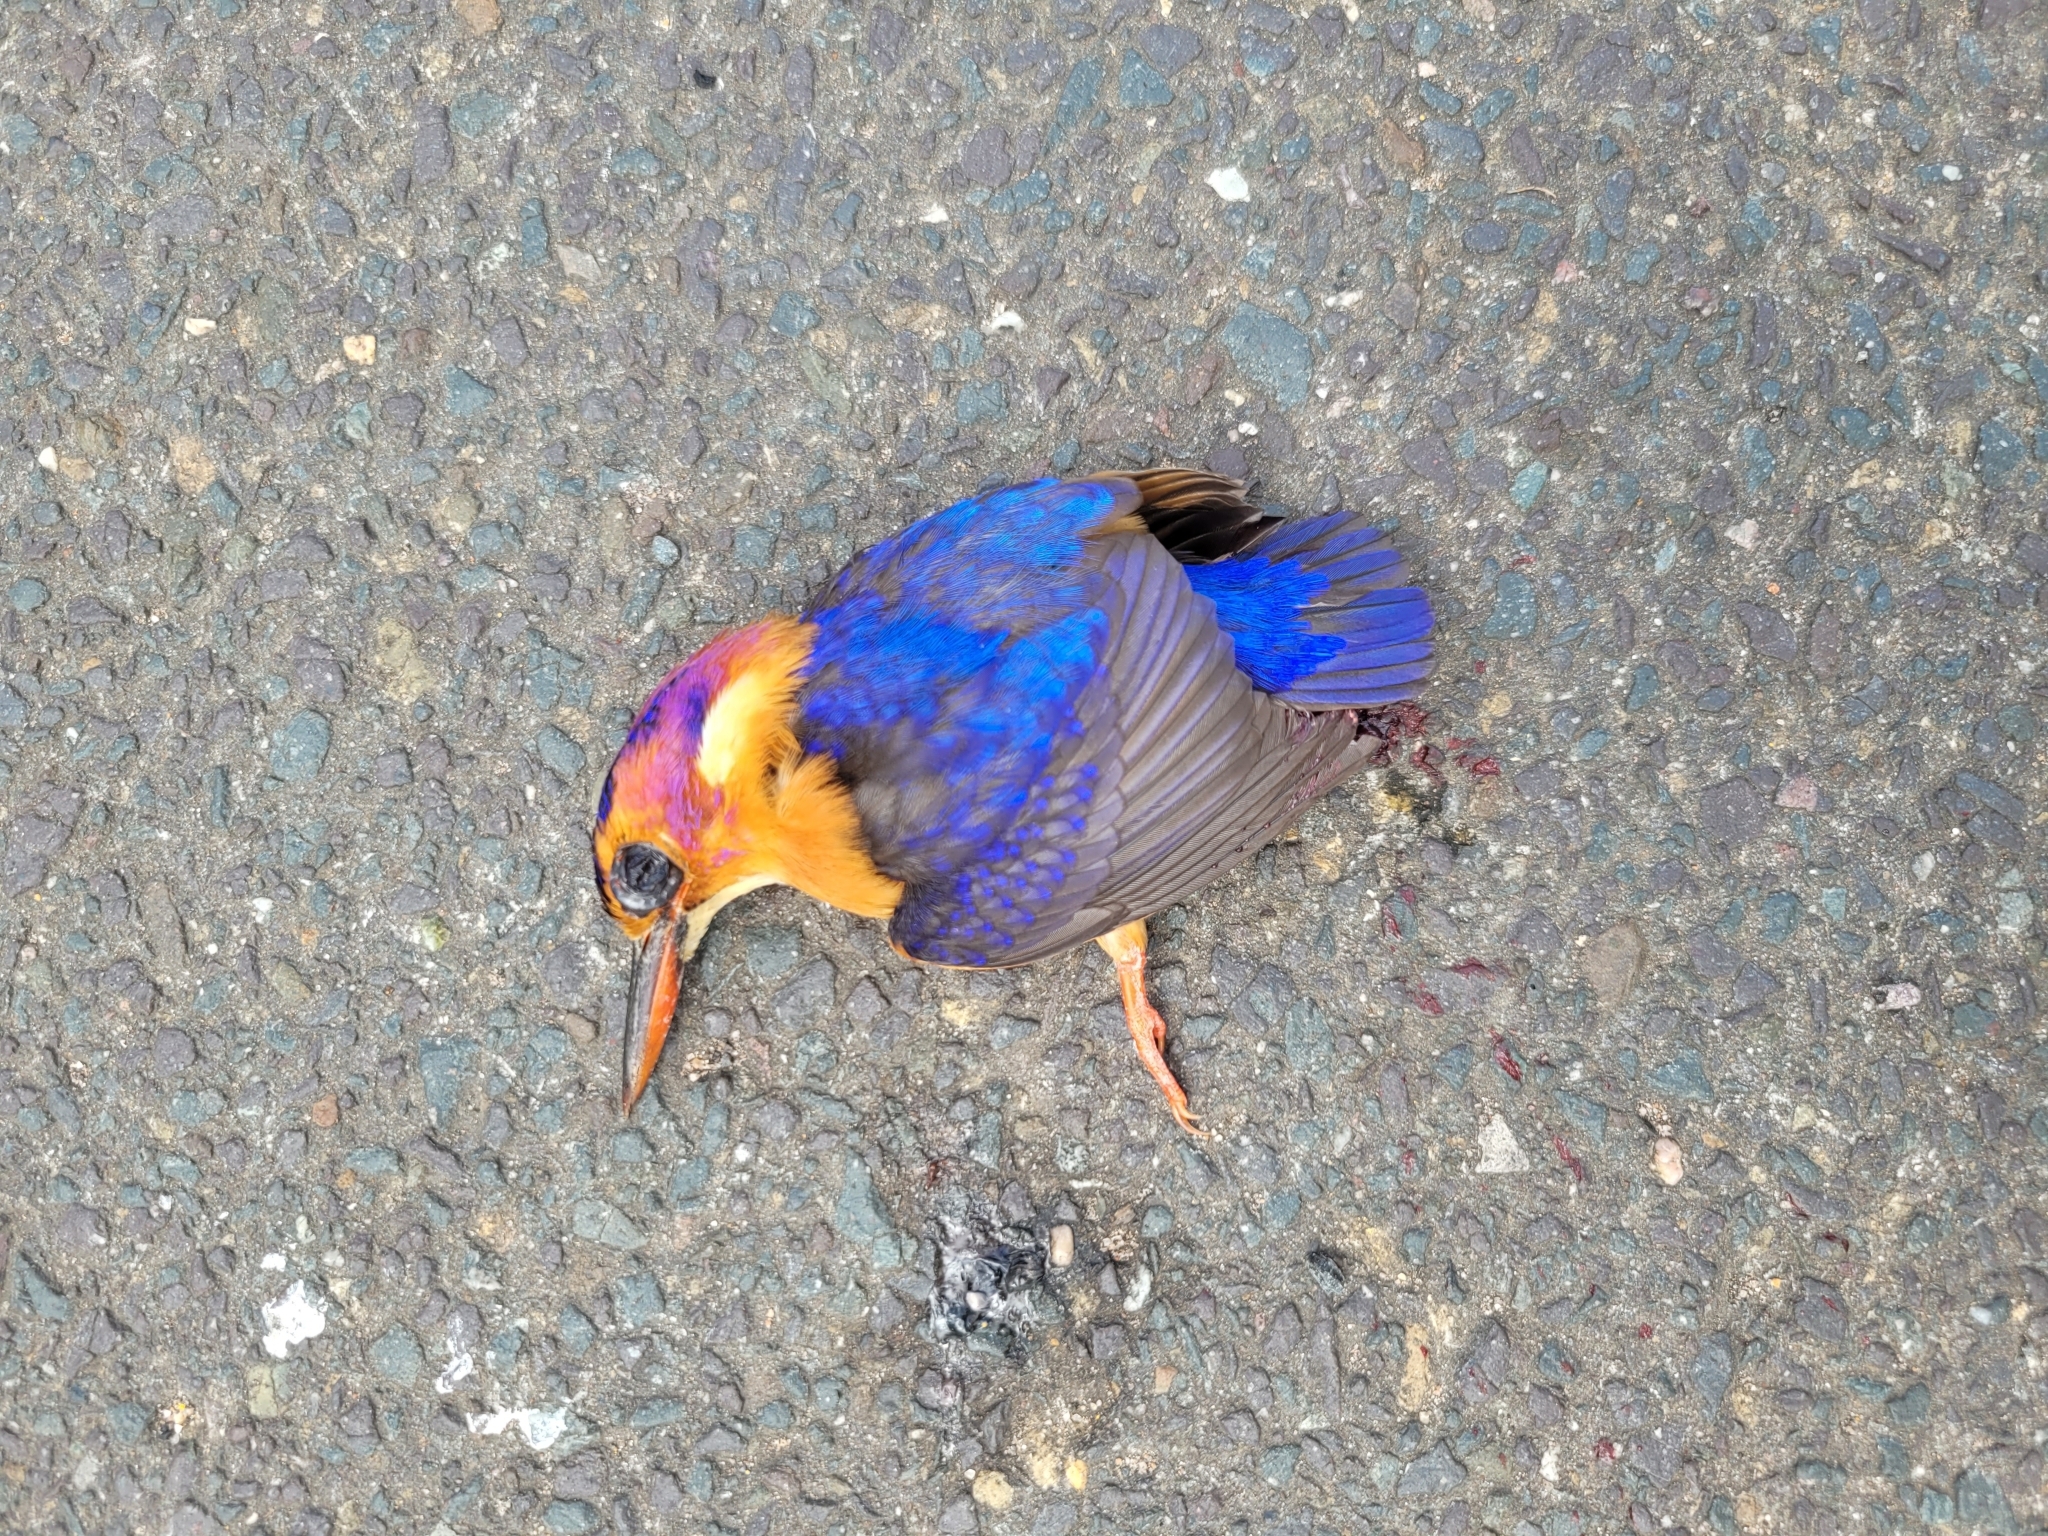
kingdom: Animalia
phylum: Chordata
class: Aves
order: Coraciiformes
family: Alcedinidae
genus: Ispidina
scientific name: Ispidina picta
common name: African pygmy-kingfisher
